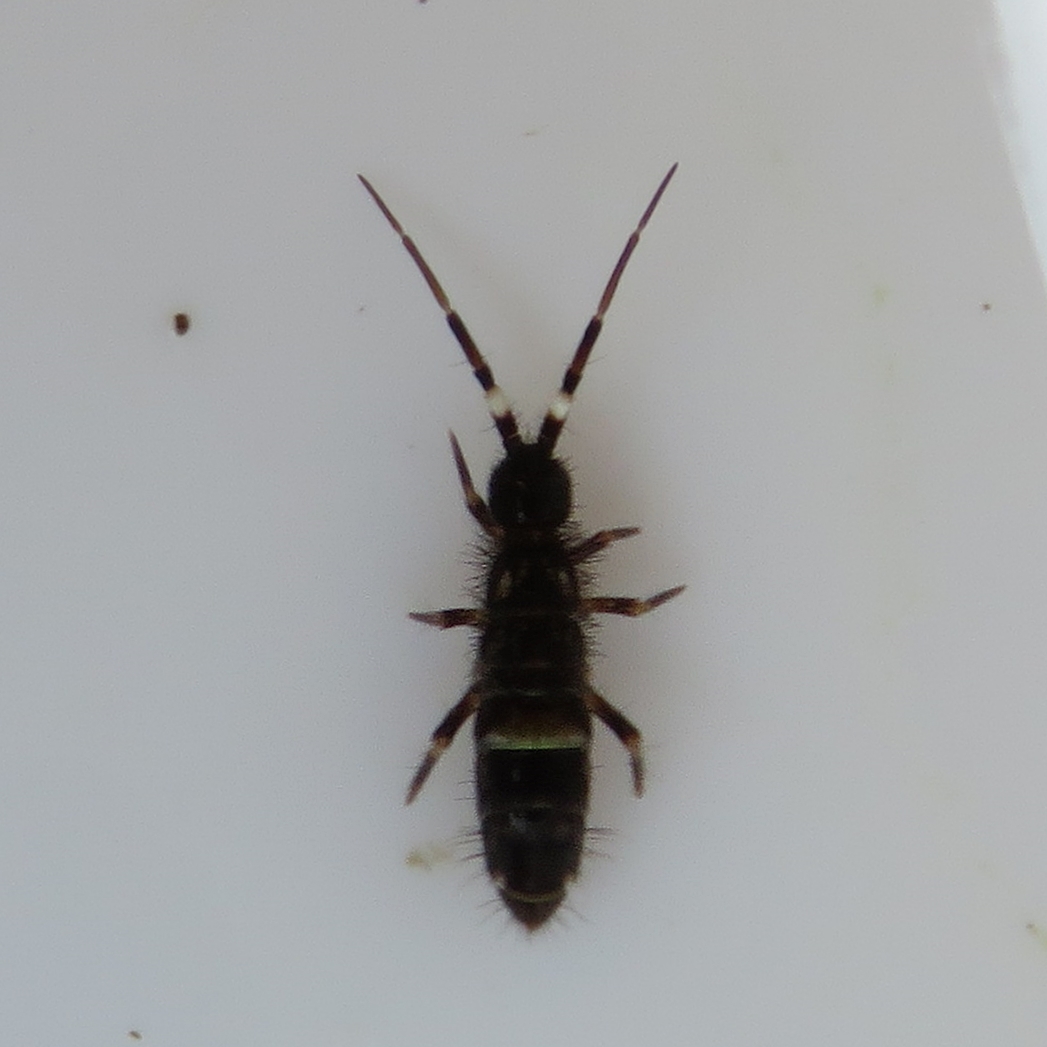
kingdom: Animalia
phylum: Arthropoda
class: Collembola
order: Entomobryomorpha
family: Orchesellidae
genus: Orchesella
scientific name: Orchesella cincta
